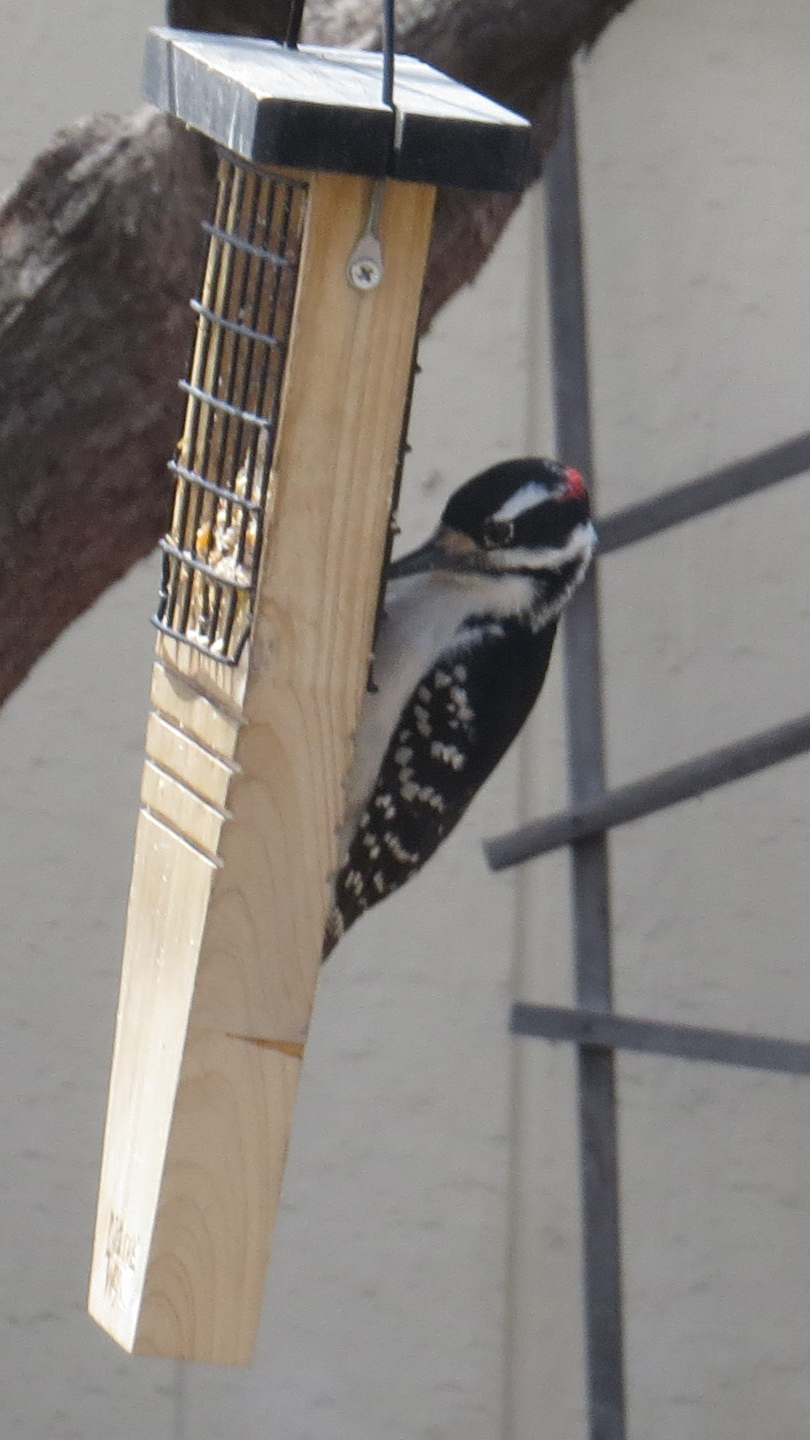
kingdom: Animalia
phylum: Chordata
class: Aves
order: Piciformes
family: Picidae
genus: Leuconotopicus
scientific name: Leuconotopicus villosus
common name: Hairy woodpecker
